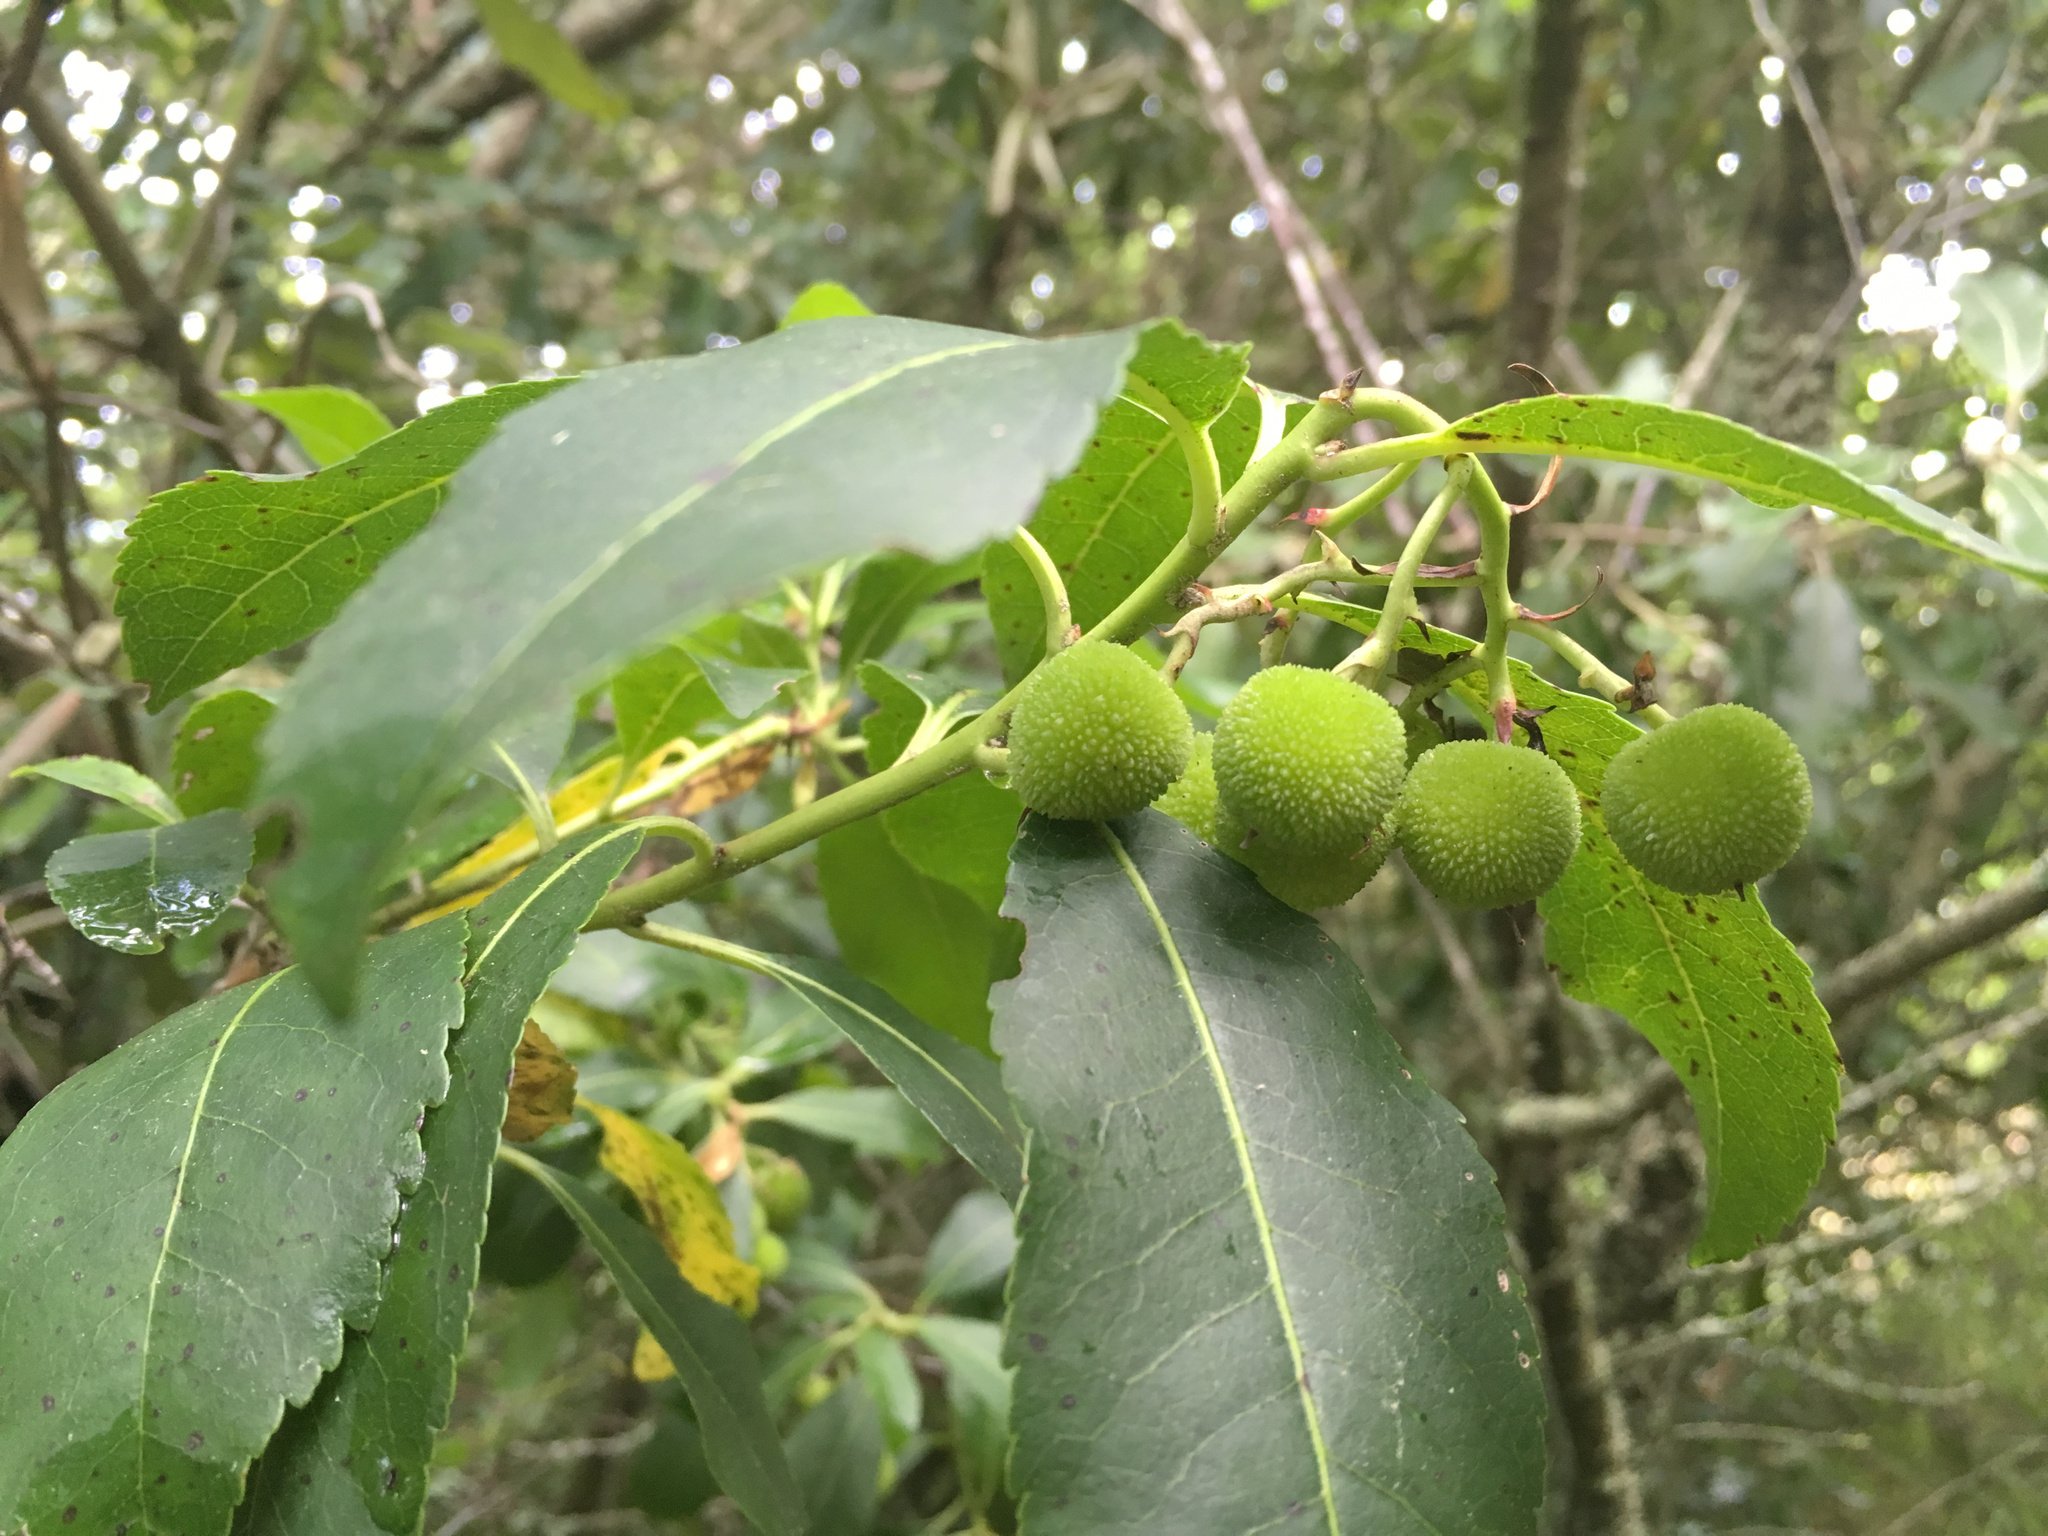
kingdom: Plantae
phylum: Tracheophyta
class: Magnoliopsida
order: Ericales
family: Ericaceae
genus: Arbutus
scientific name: Arbutus unedo
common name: Strawberry-tree
